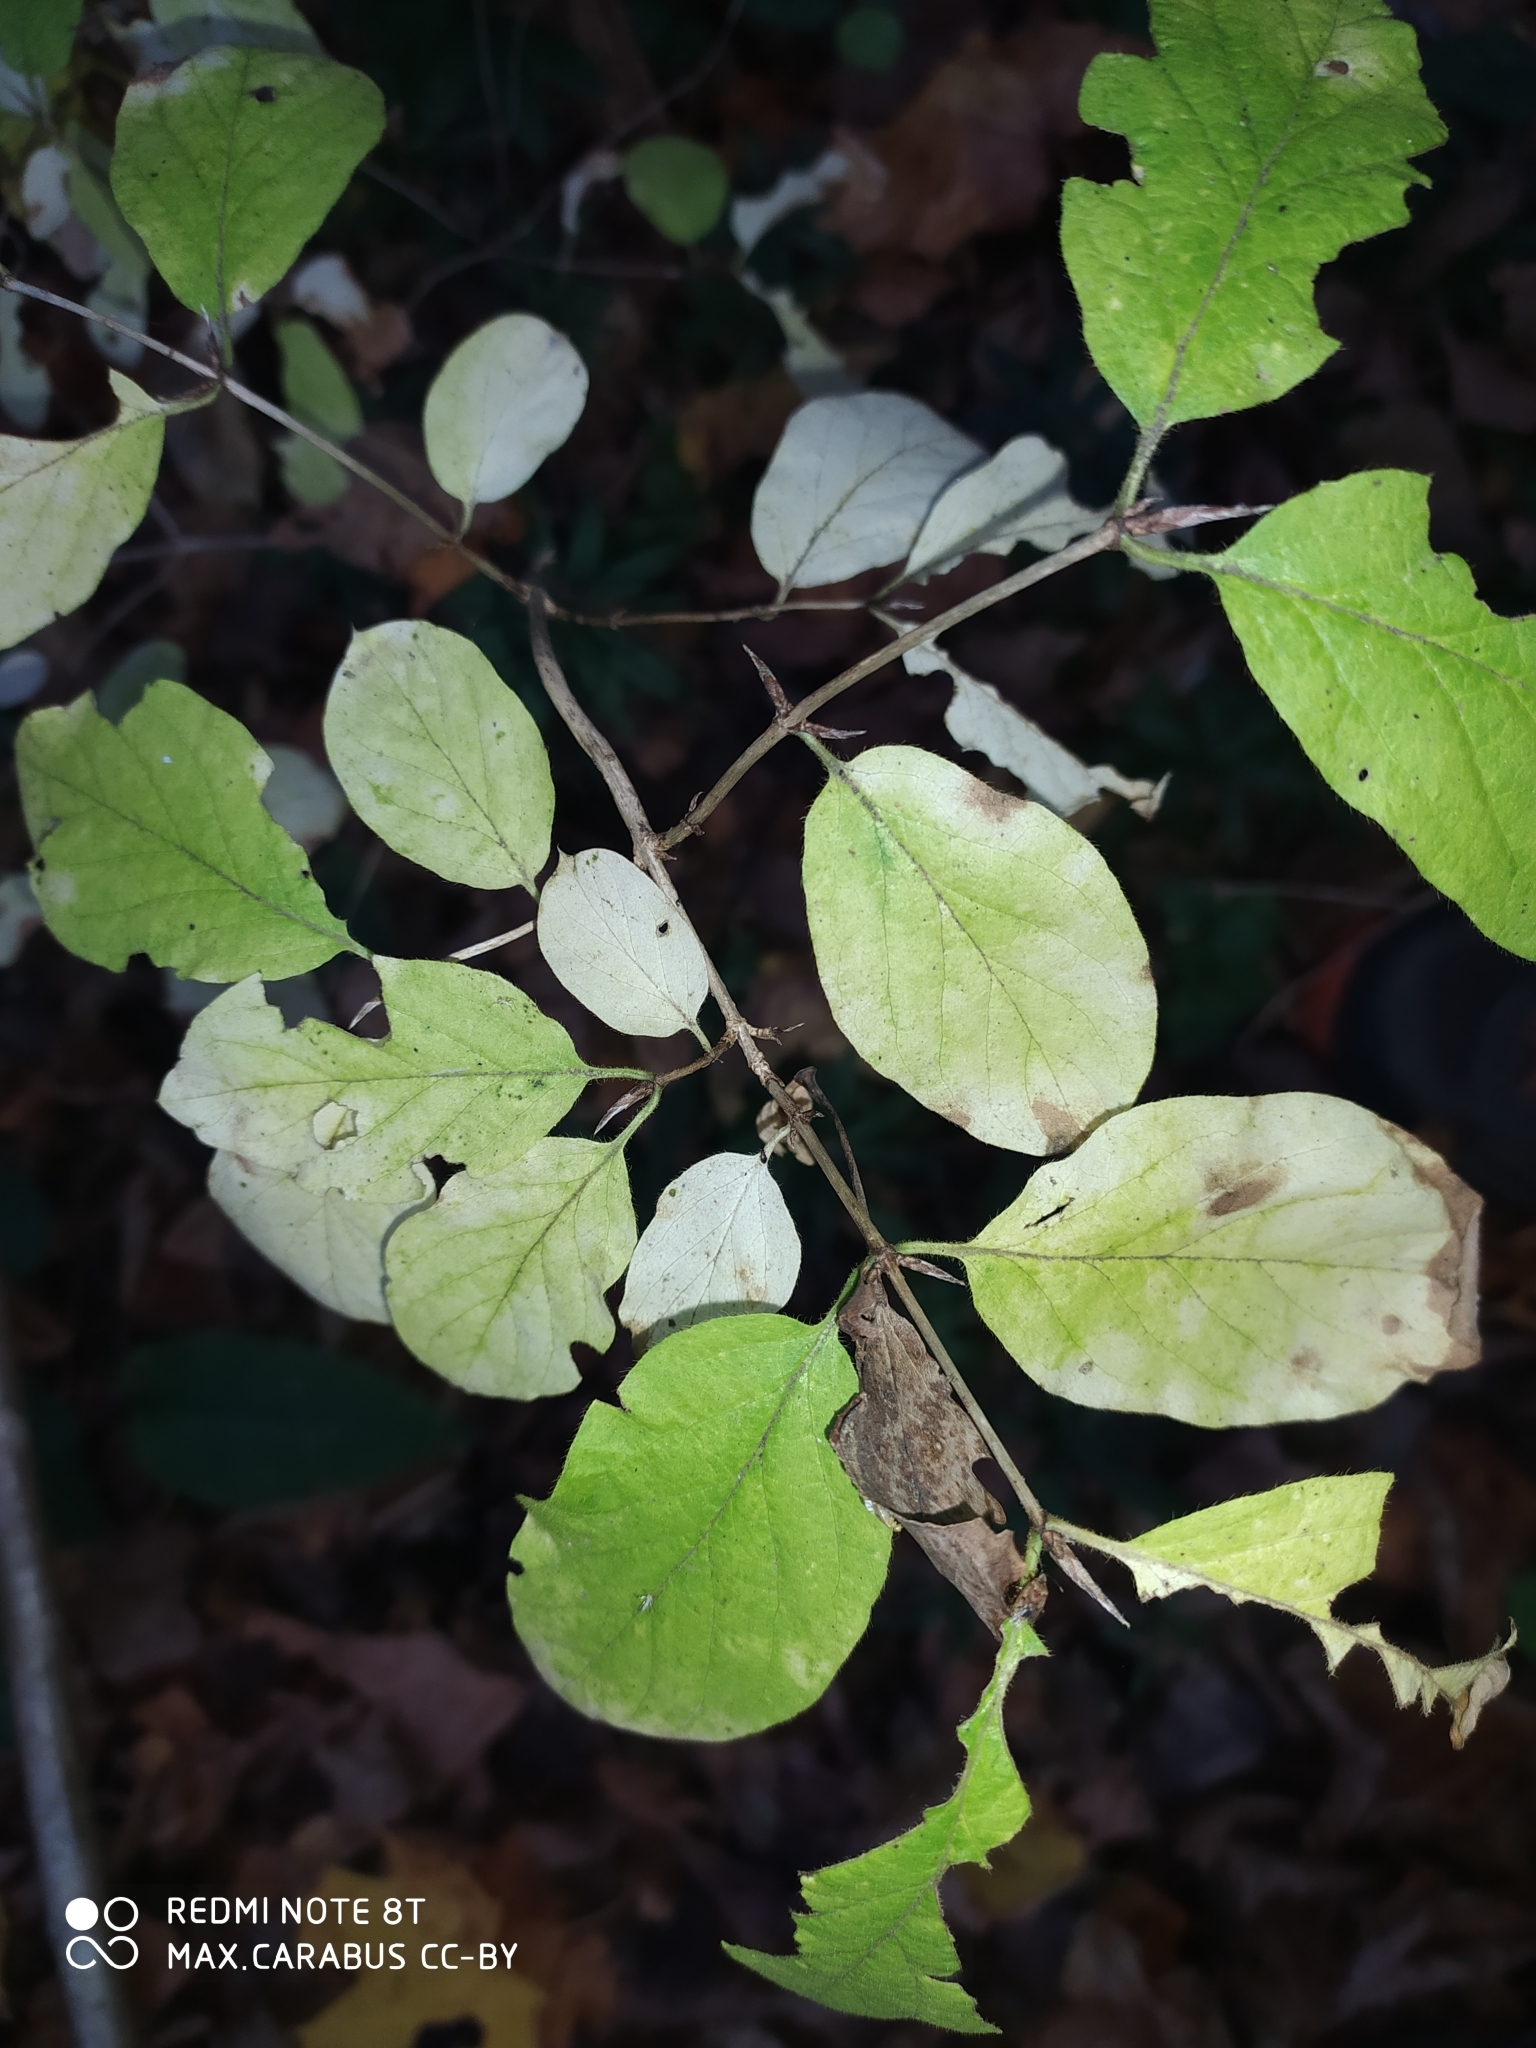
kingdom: Plantae
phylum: Tracheophyta
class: Magnoliopsida
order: Dipsacales
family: Caprifoliaceae
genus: Lonicera
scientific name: Lonicera xylosteum
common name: Fly honeysuckle
